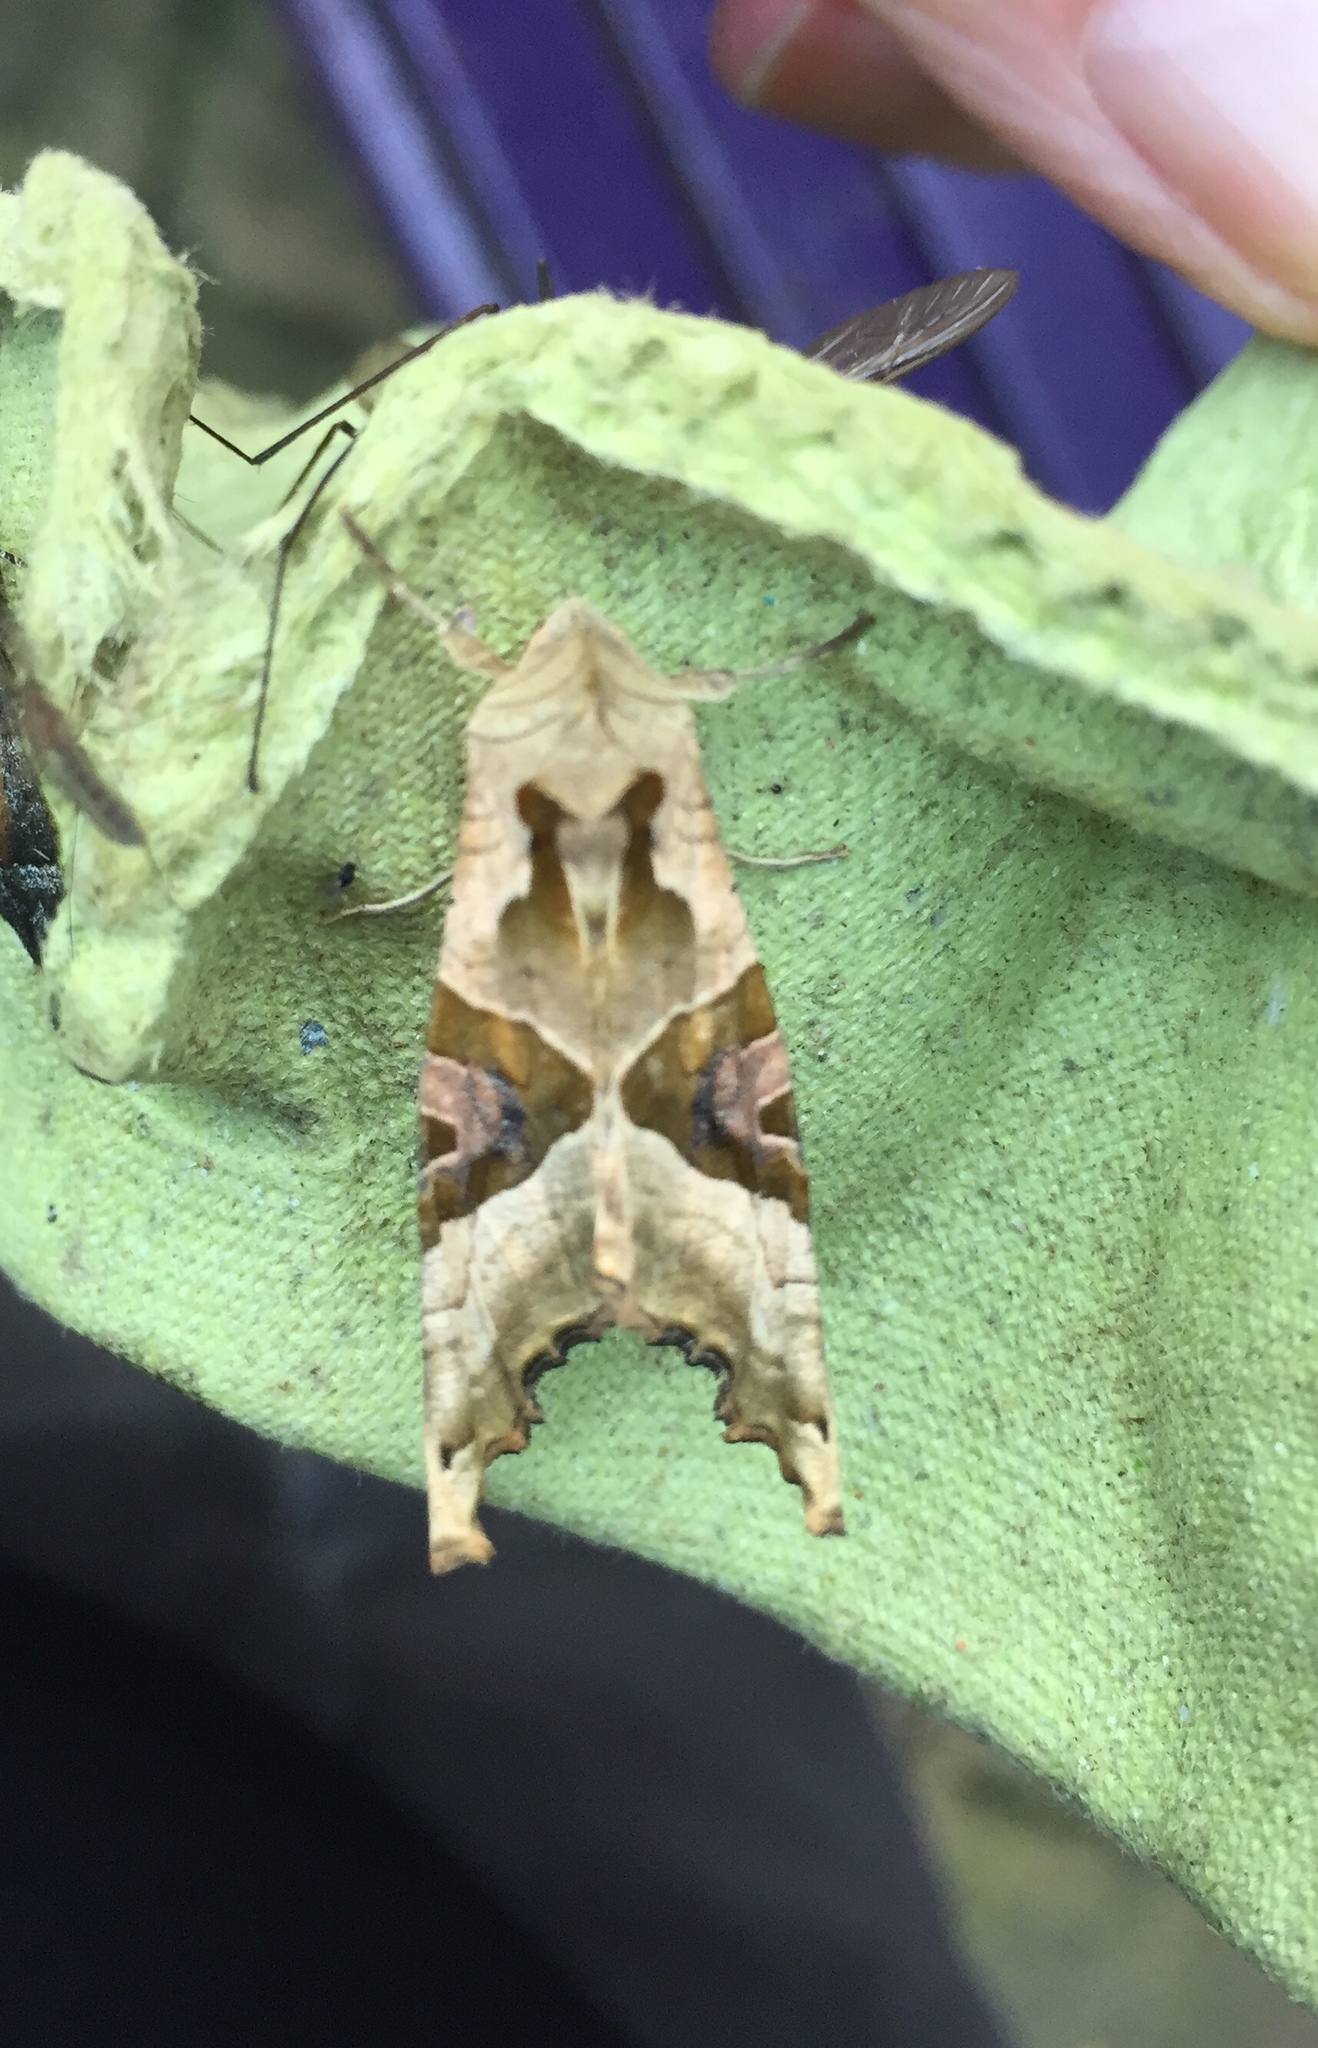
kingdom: Animalia
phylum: Arthropoda
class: Insecta
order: Lepidoptera
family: Noctuidae
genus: Phlogophora
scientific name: Phlogophora meticulosa
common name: Angle shades
